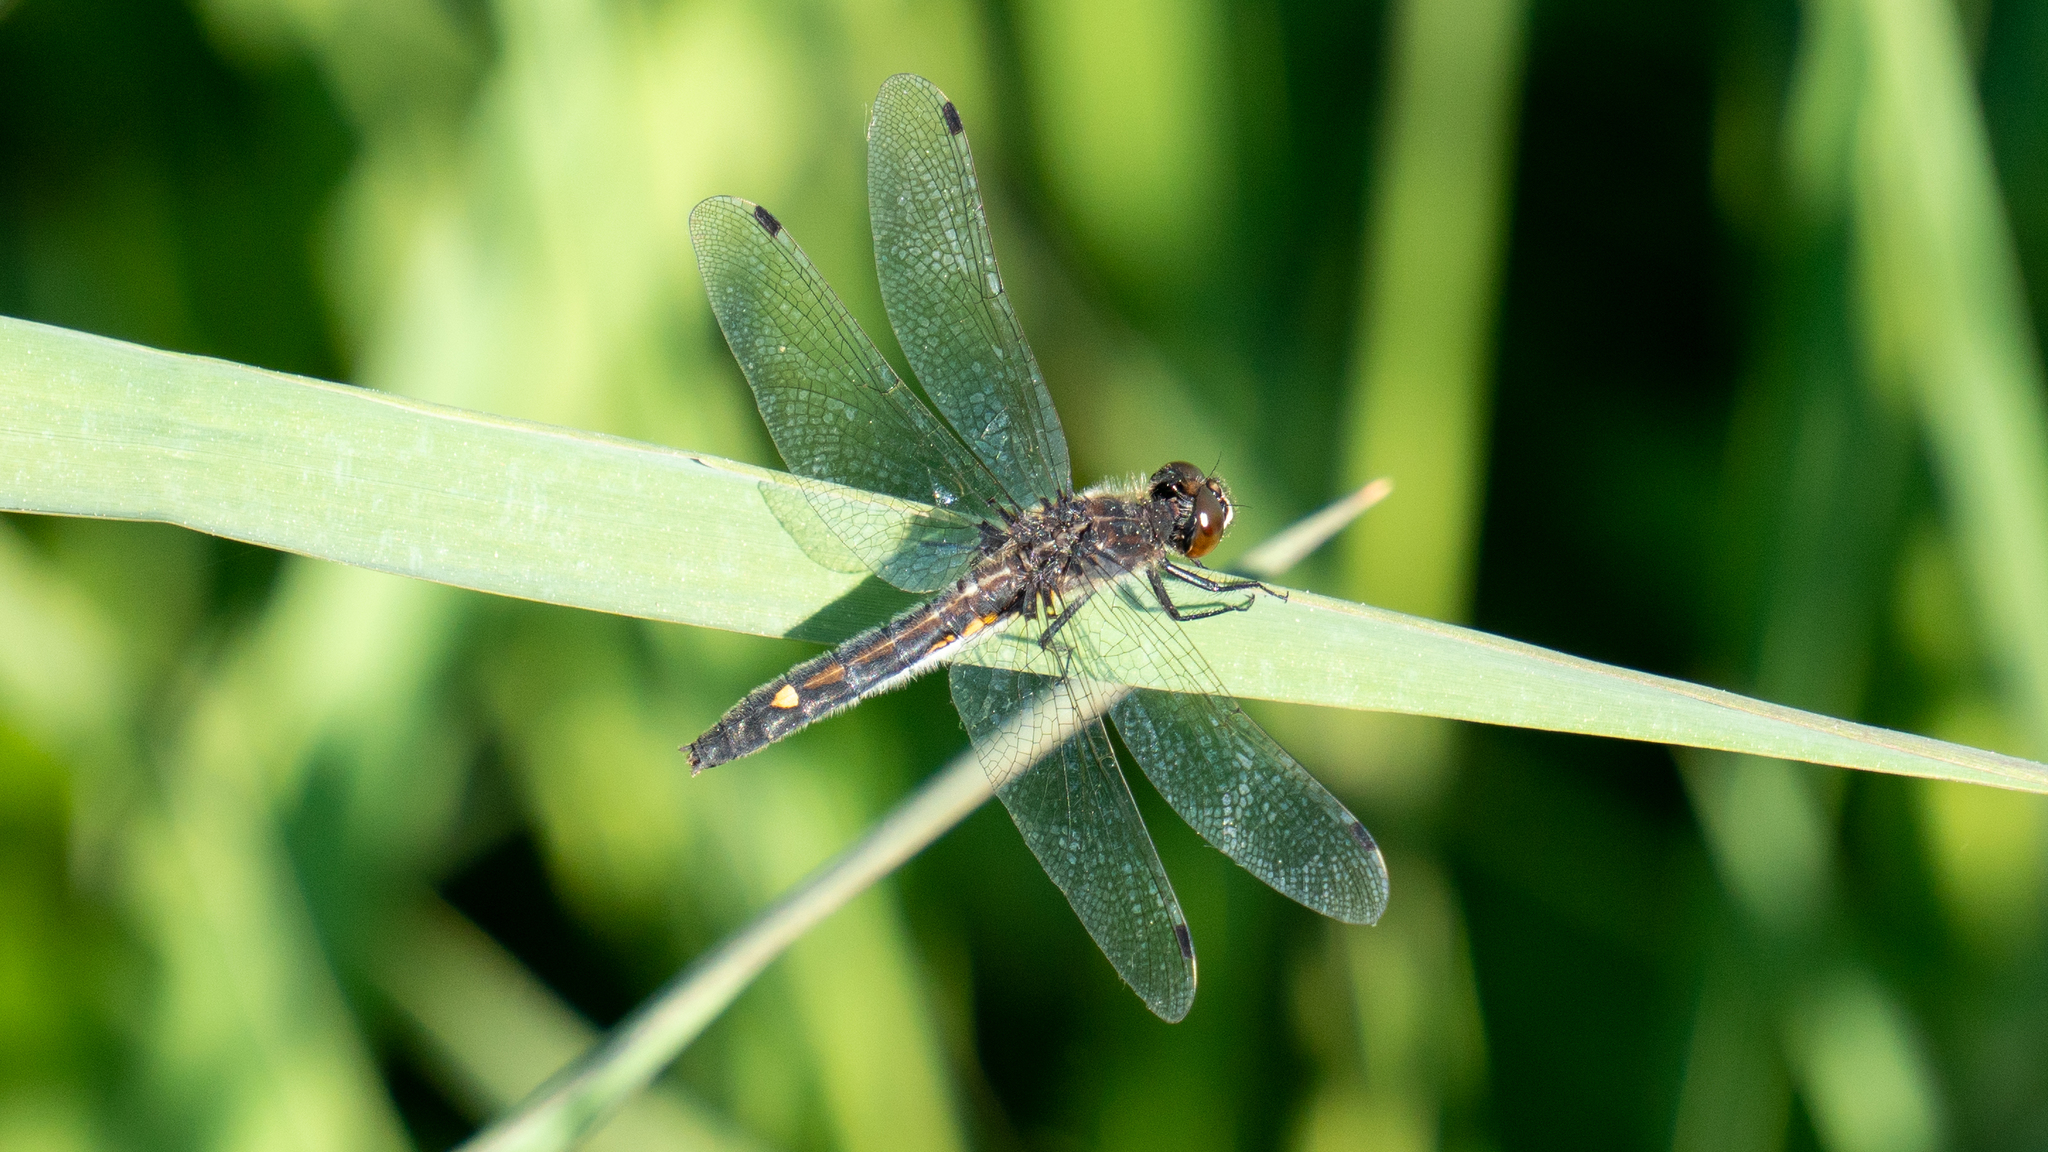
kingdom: Animalia
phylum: Arthropoda
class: Insecta
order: Odonata
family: Libellulidae
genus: Leucorrhinia
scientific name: Leucorrhinia intacta
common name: Dot-tailed whiteface
